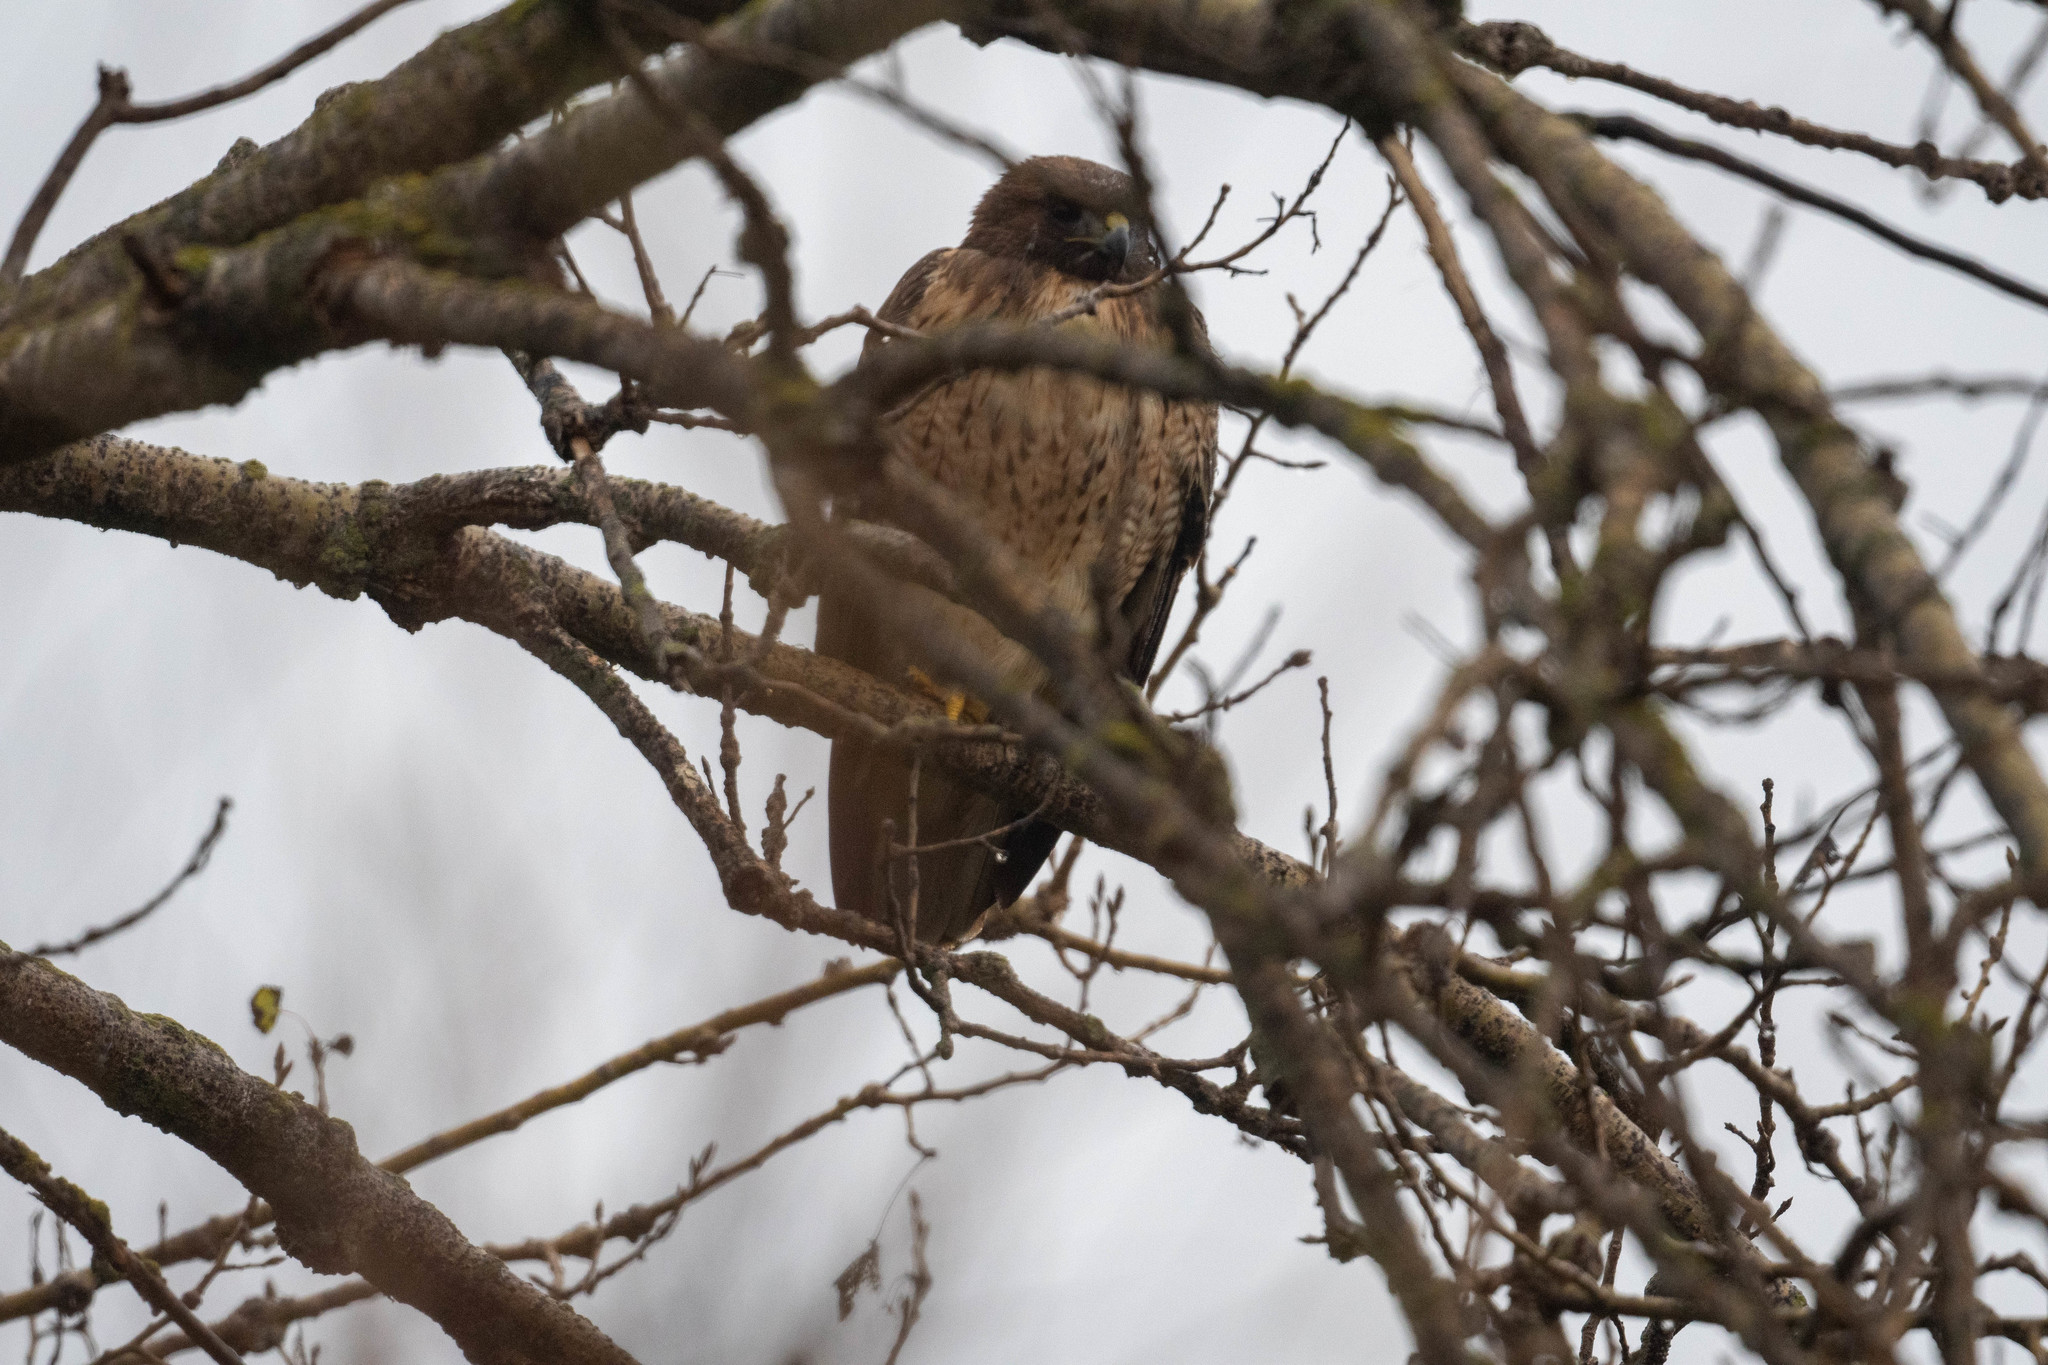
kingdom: Animalia
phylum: Chordata
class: Aves
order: Accipitriformes
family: Accipitridae
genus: Buteo
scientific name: Buteo jamaicensis
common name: Red-tailed hawk
